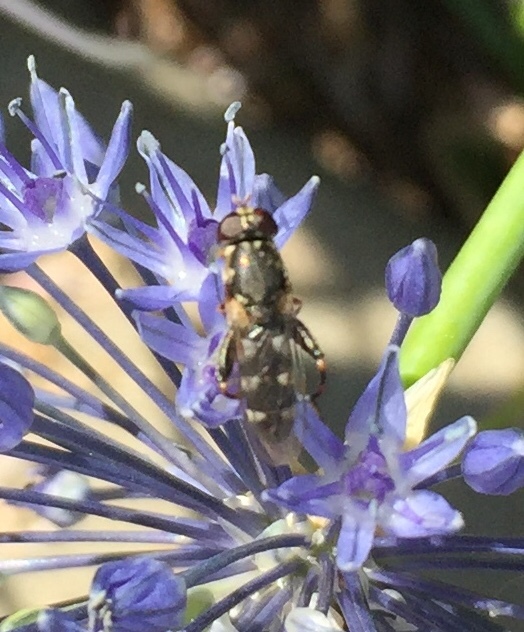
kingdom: Animalia
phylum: Arthropoda
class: Insecta
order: Diptera
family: Syrphidae
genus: Syritta
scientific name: Syritta pipiens
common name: Hover fly
